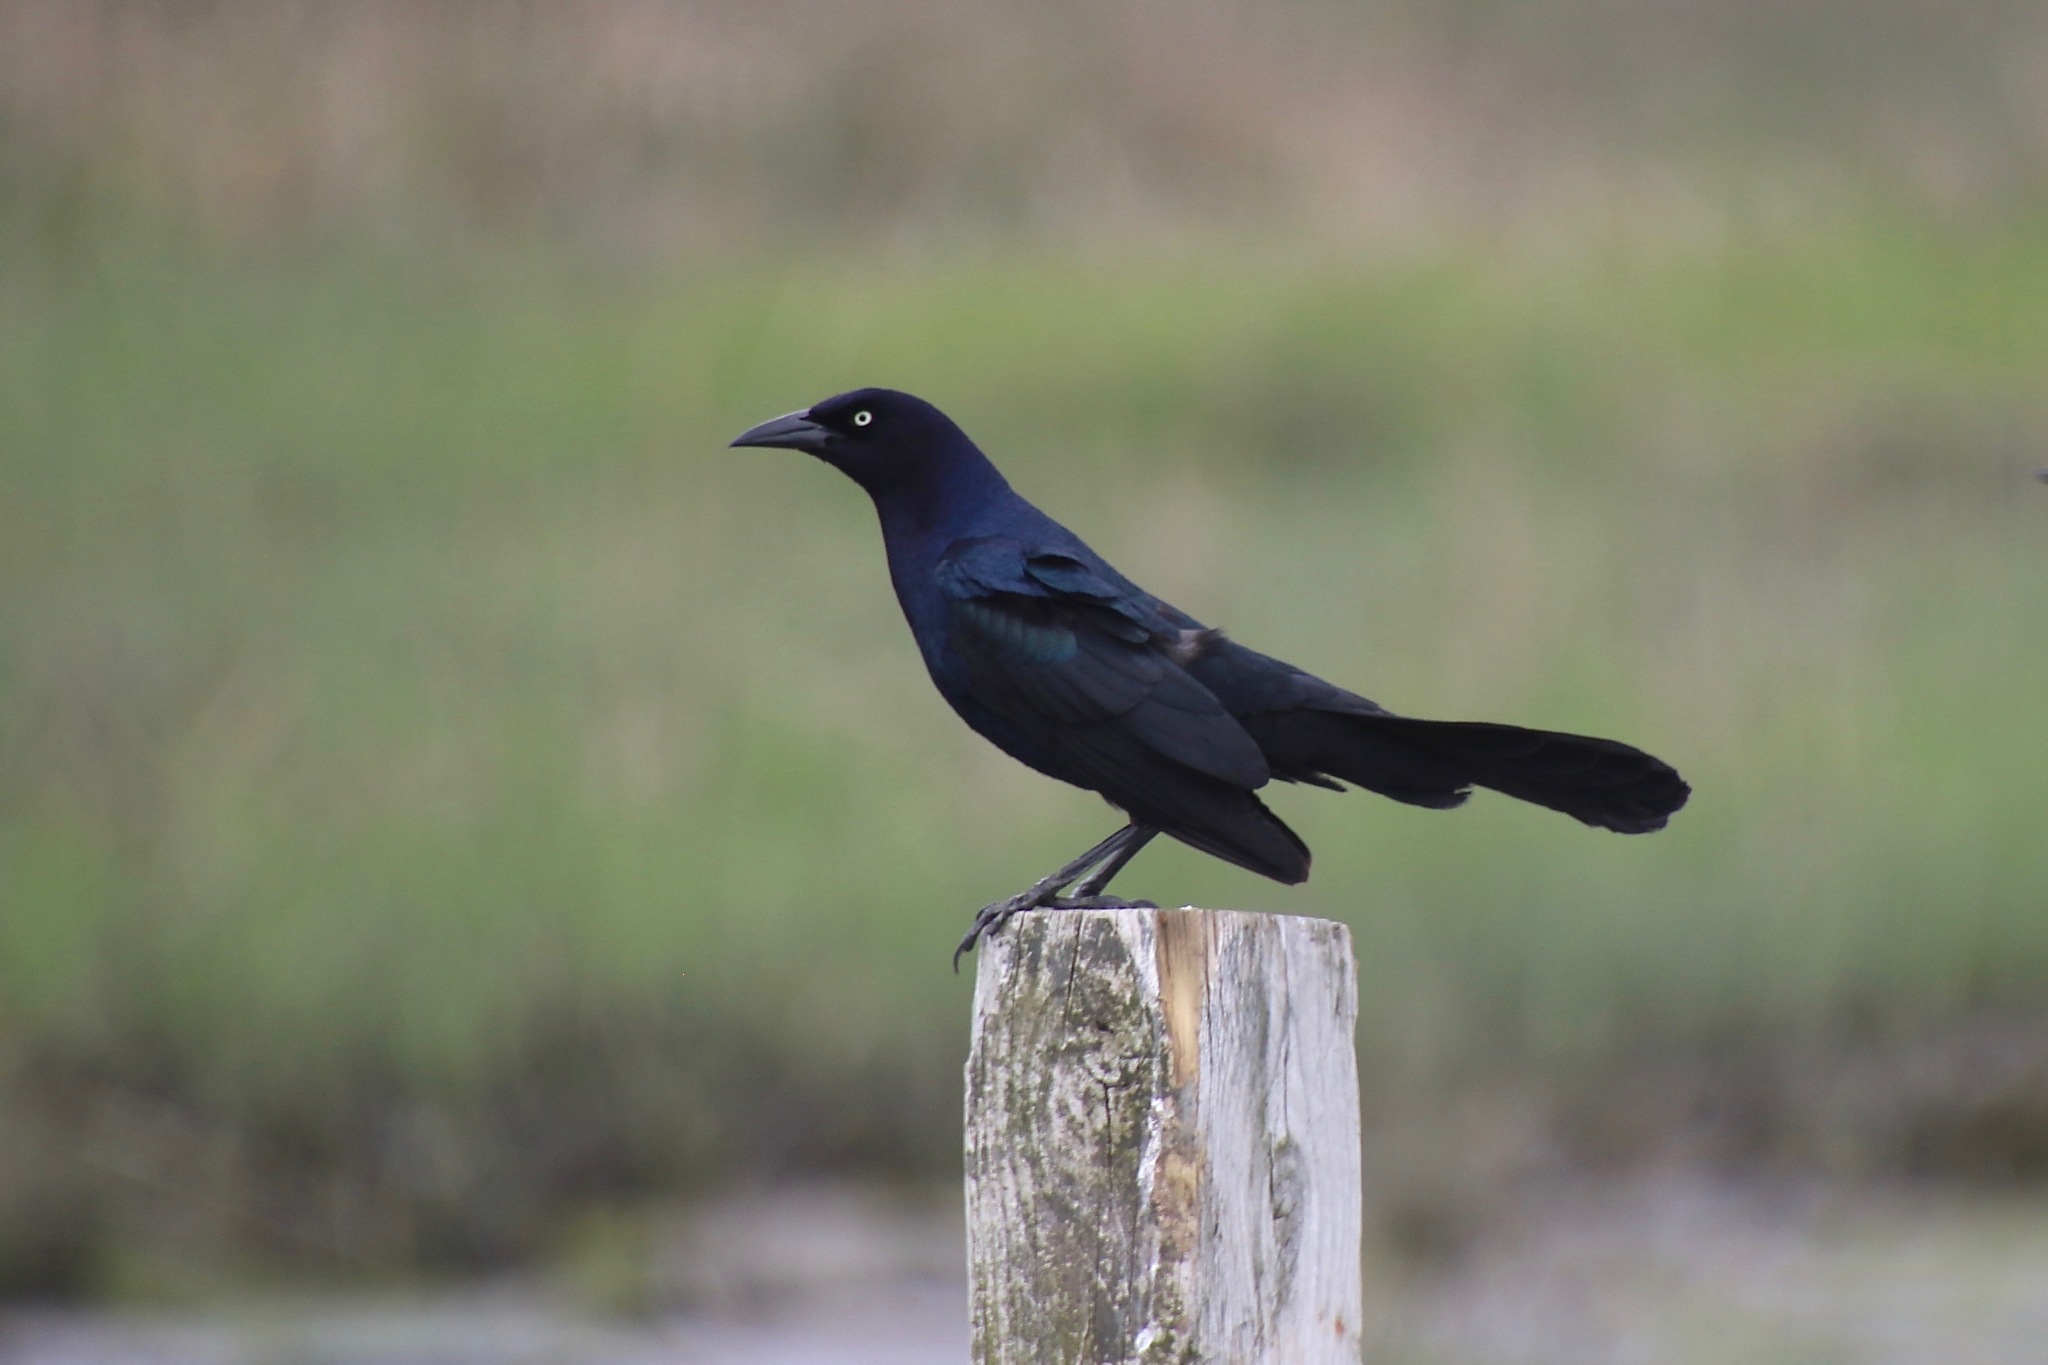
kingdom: Animalia
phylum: Chordata
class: Aves
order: Passeriformes
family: Icteridae
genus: Quiscalus
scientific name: Quiscalus major
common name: Boat-tailed grackle
